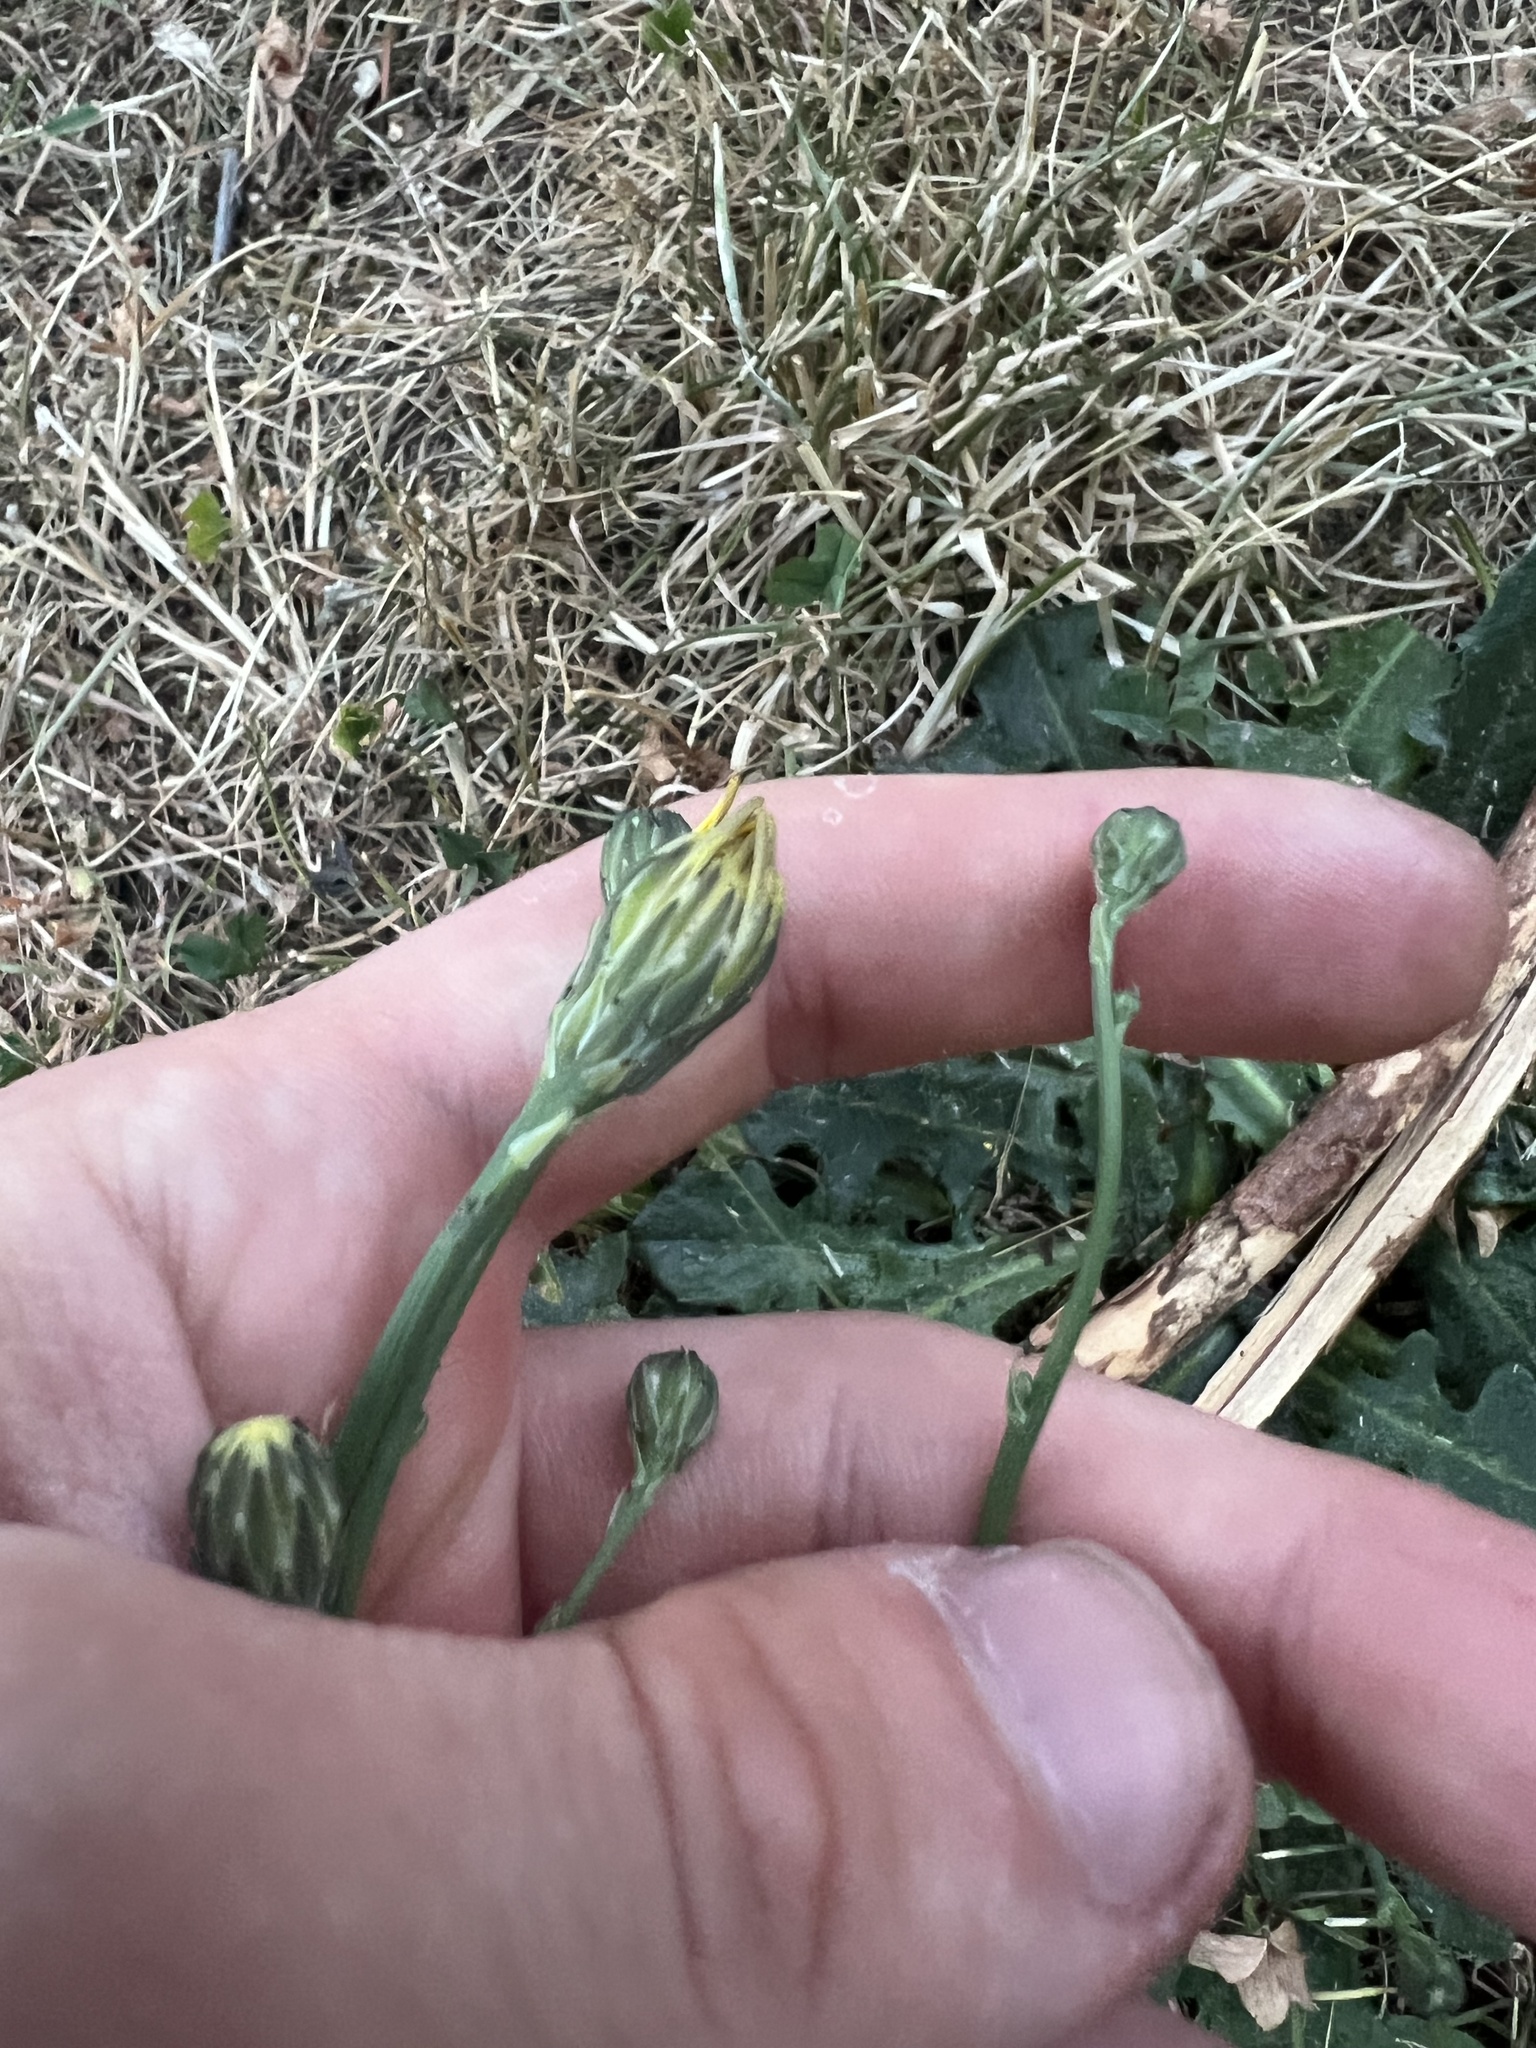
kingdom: Plantae
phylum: Tracheophyta
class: Magnoliopsida
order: Asterales
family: Asteraceae
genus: Hypochaeris
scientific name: Hypochaeris radicata
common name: Flatweed
